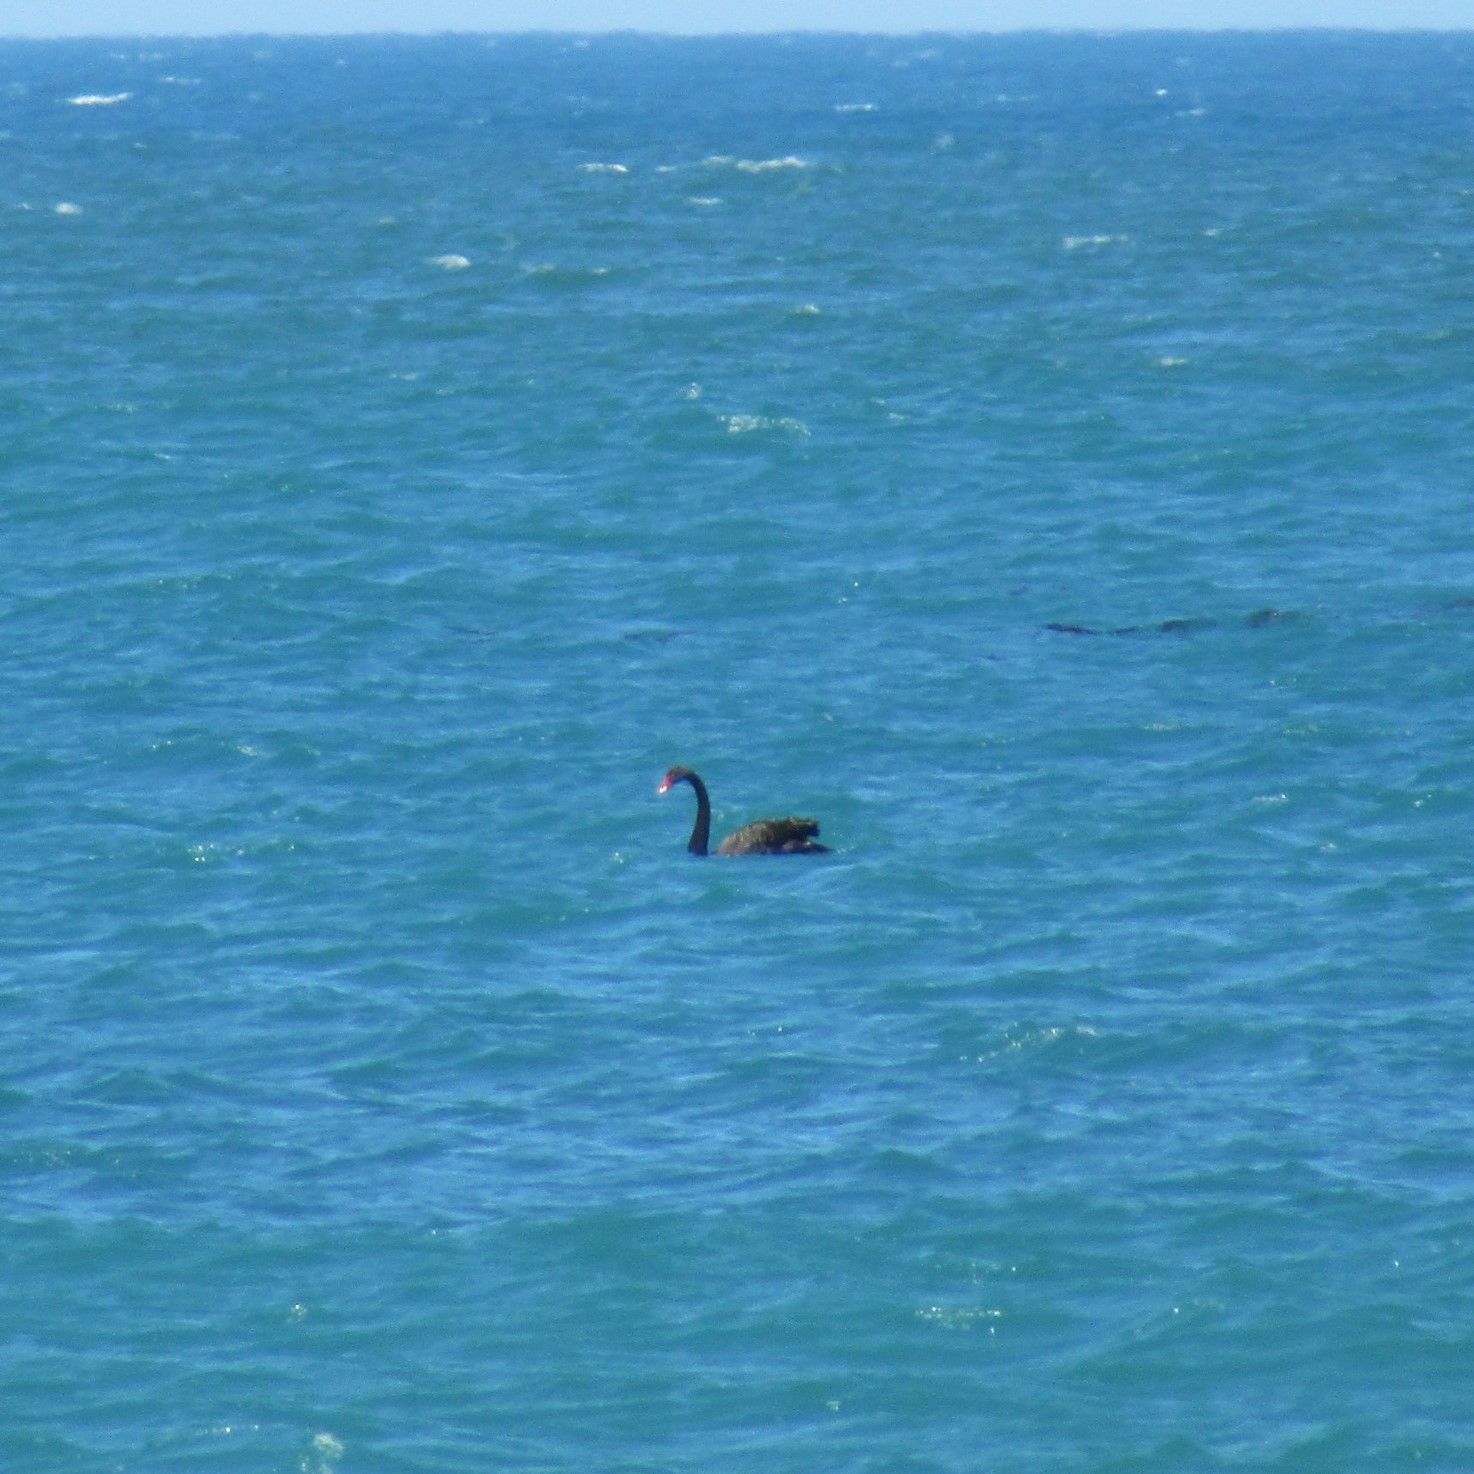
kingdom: Animalia
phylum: Chordata
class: Aves
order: Anseriformes
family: Anatidae
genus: Cygnus
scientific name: Cygnus atratus
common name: Black swan
